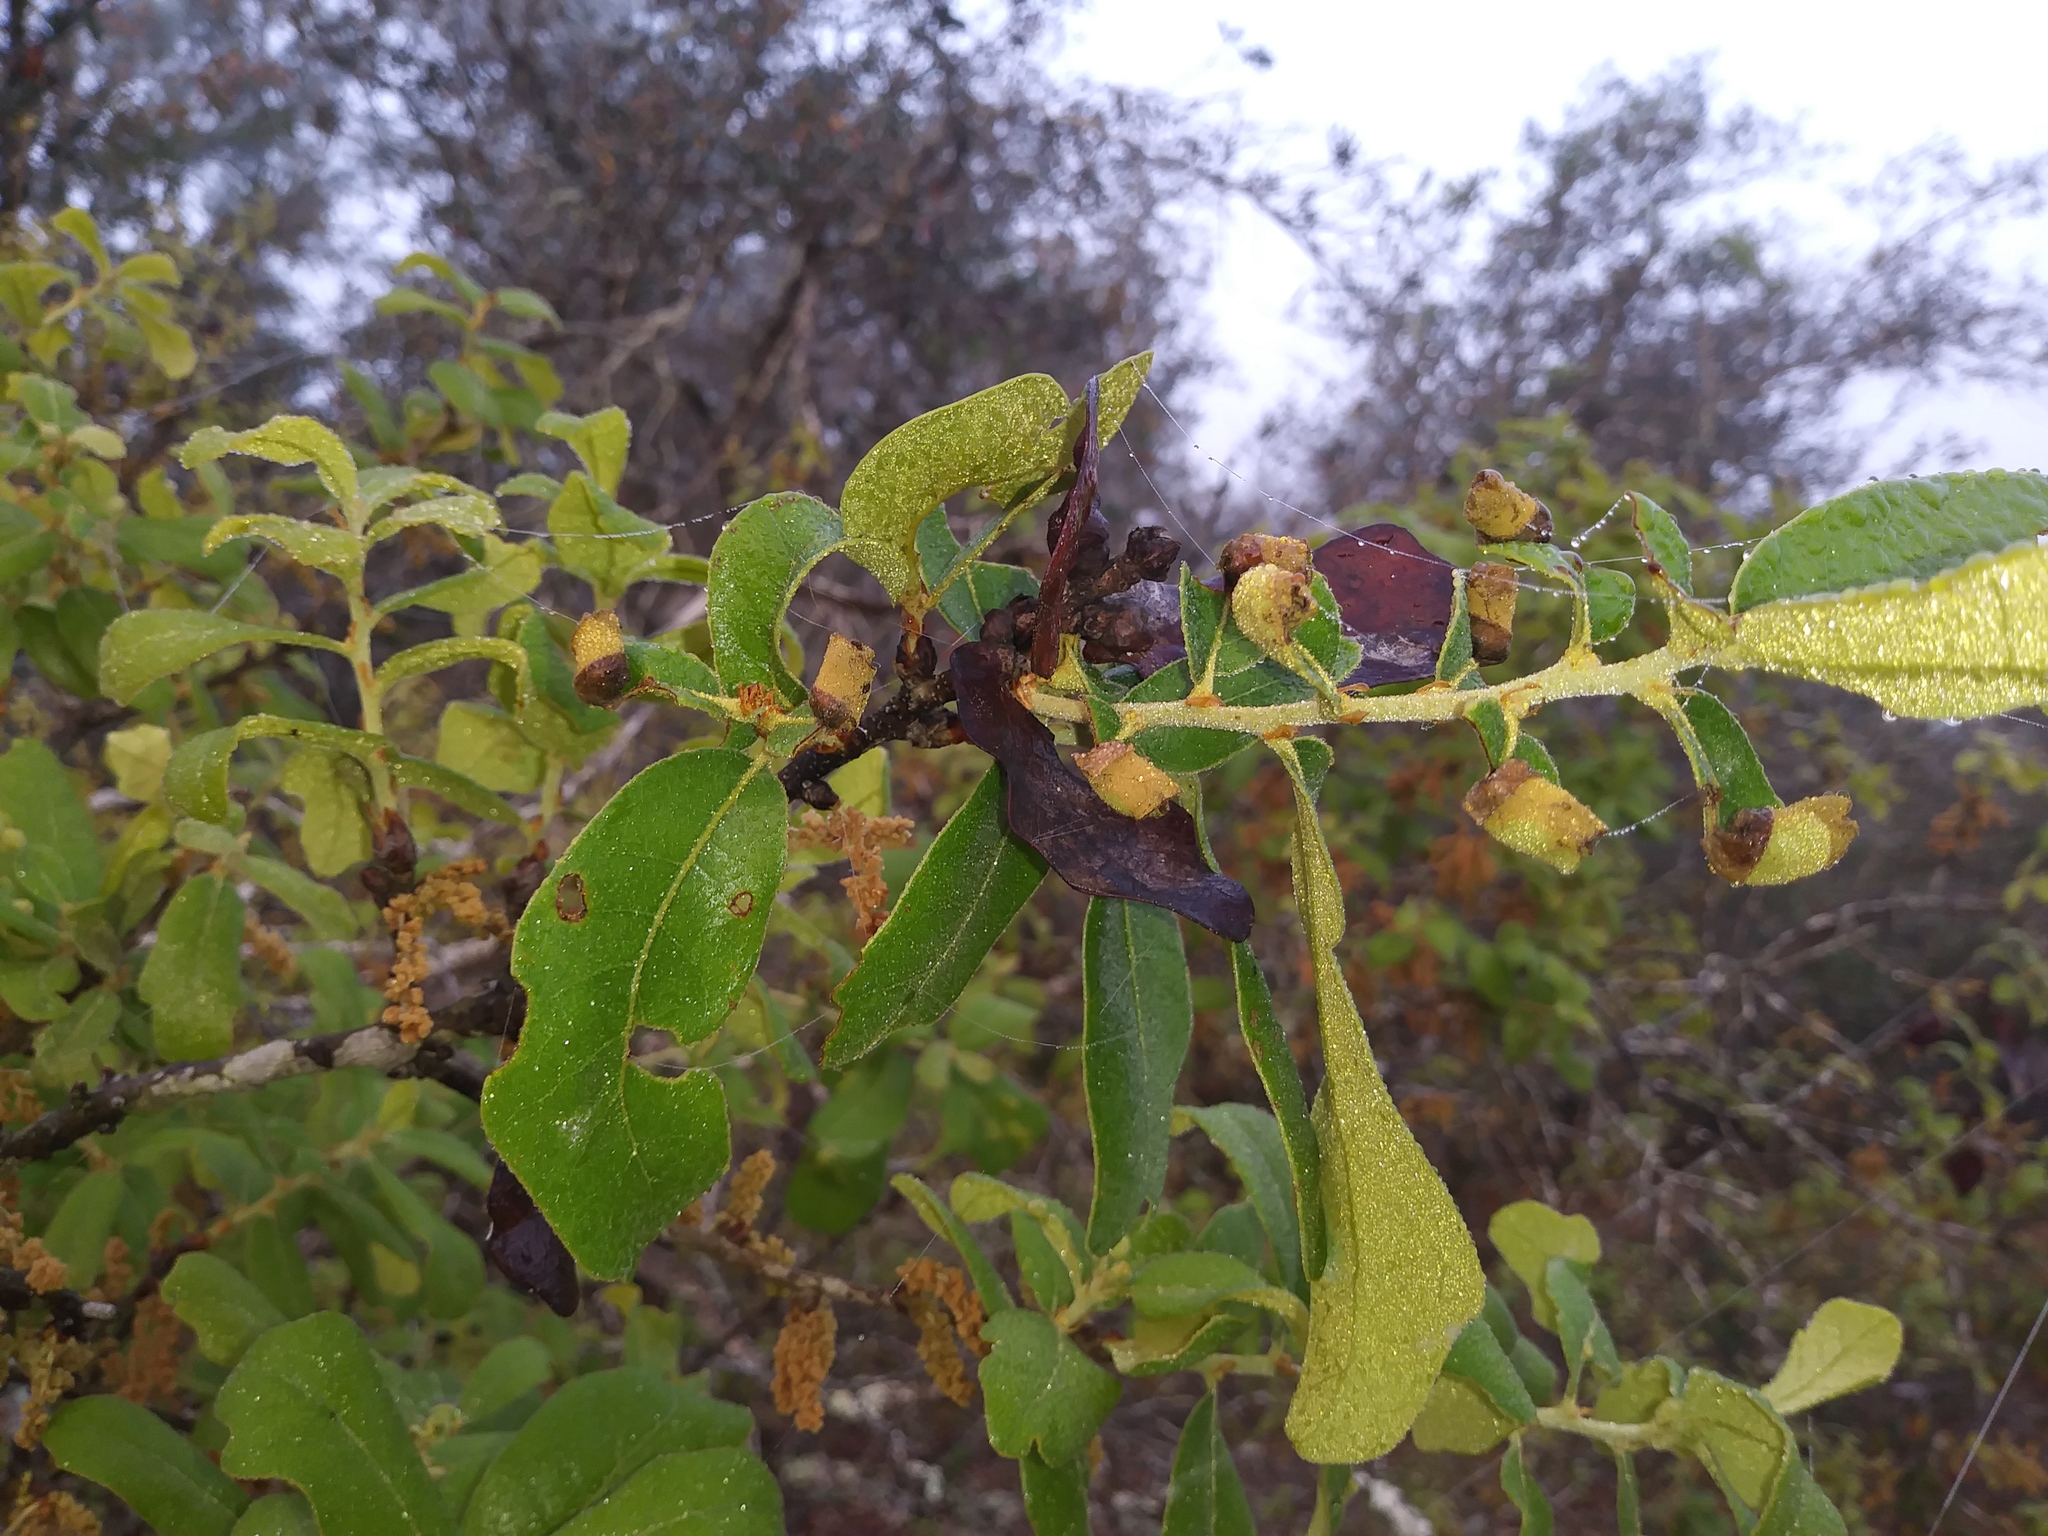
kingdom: Plantae
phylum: Tracheophyta
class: Magnoliopsida
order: Fagales
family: Fagaceae
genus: Quercus
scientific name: Quercus chapmanii
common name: Chapman oak
